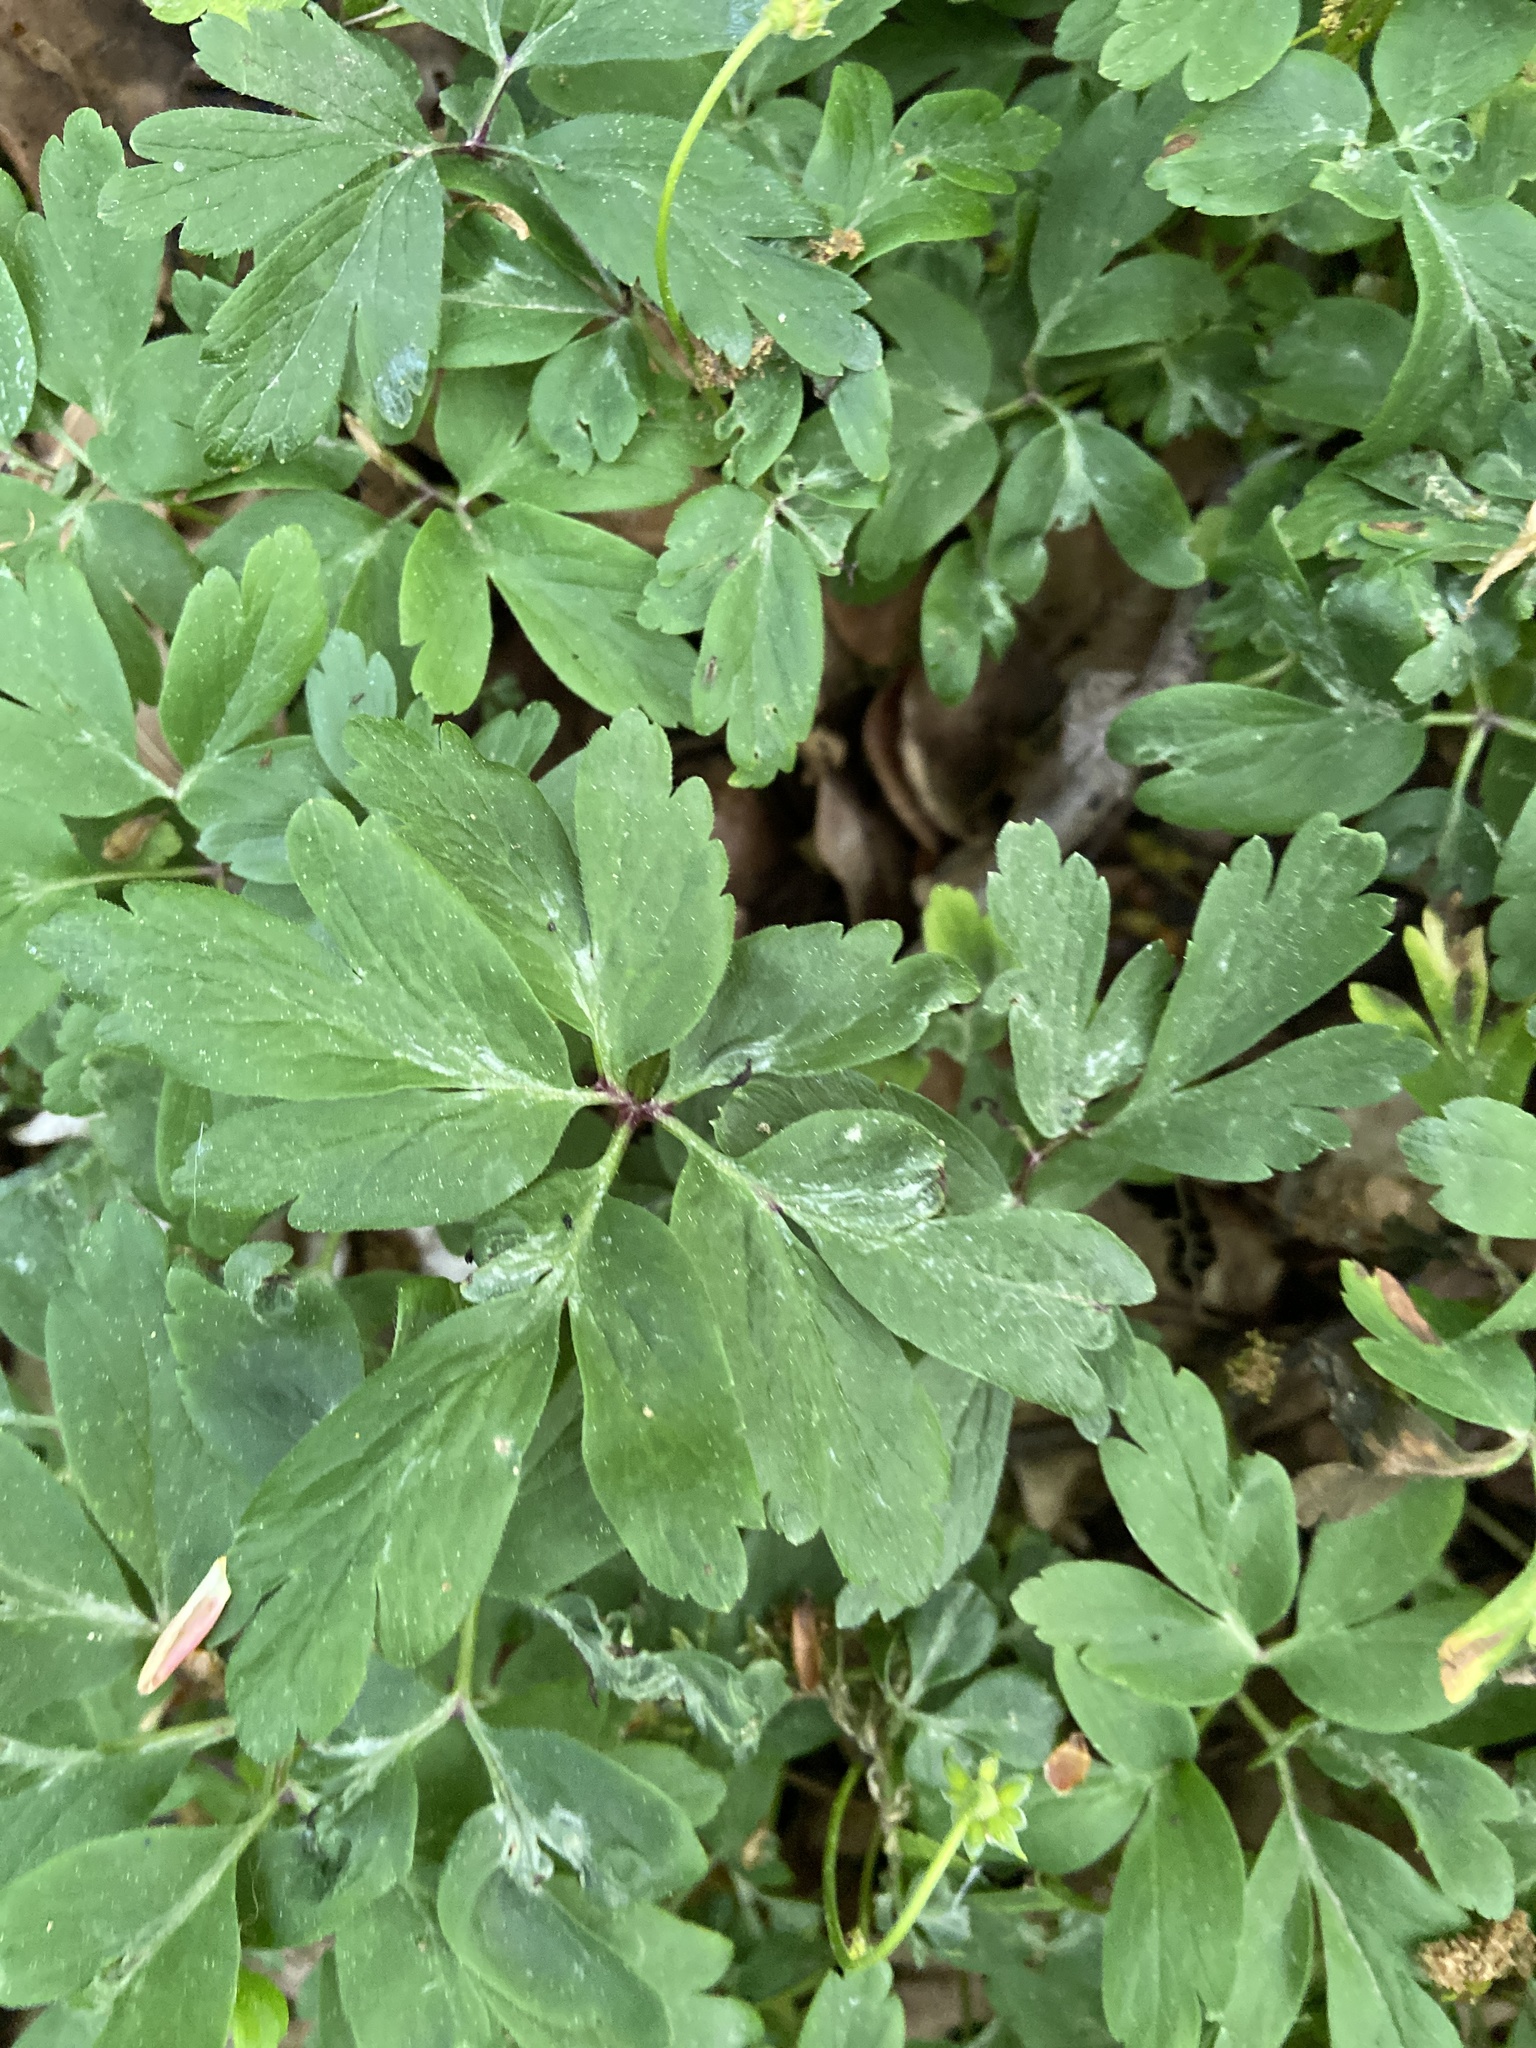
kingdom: Plantae
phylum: Tracheophyta
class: Magnoliopsida
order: Ranunculales
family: Ranunculaceae
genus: Anemone
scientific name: Anemone nemorosa
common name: Wood anemone
